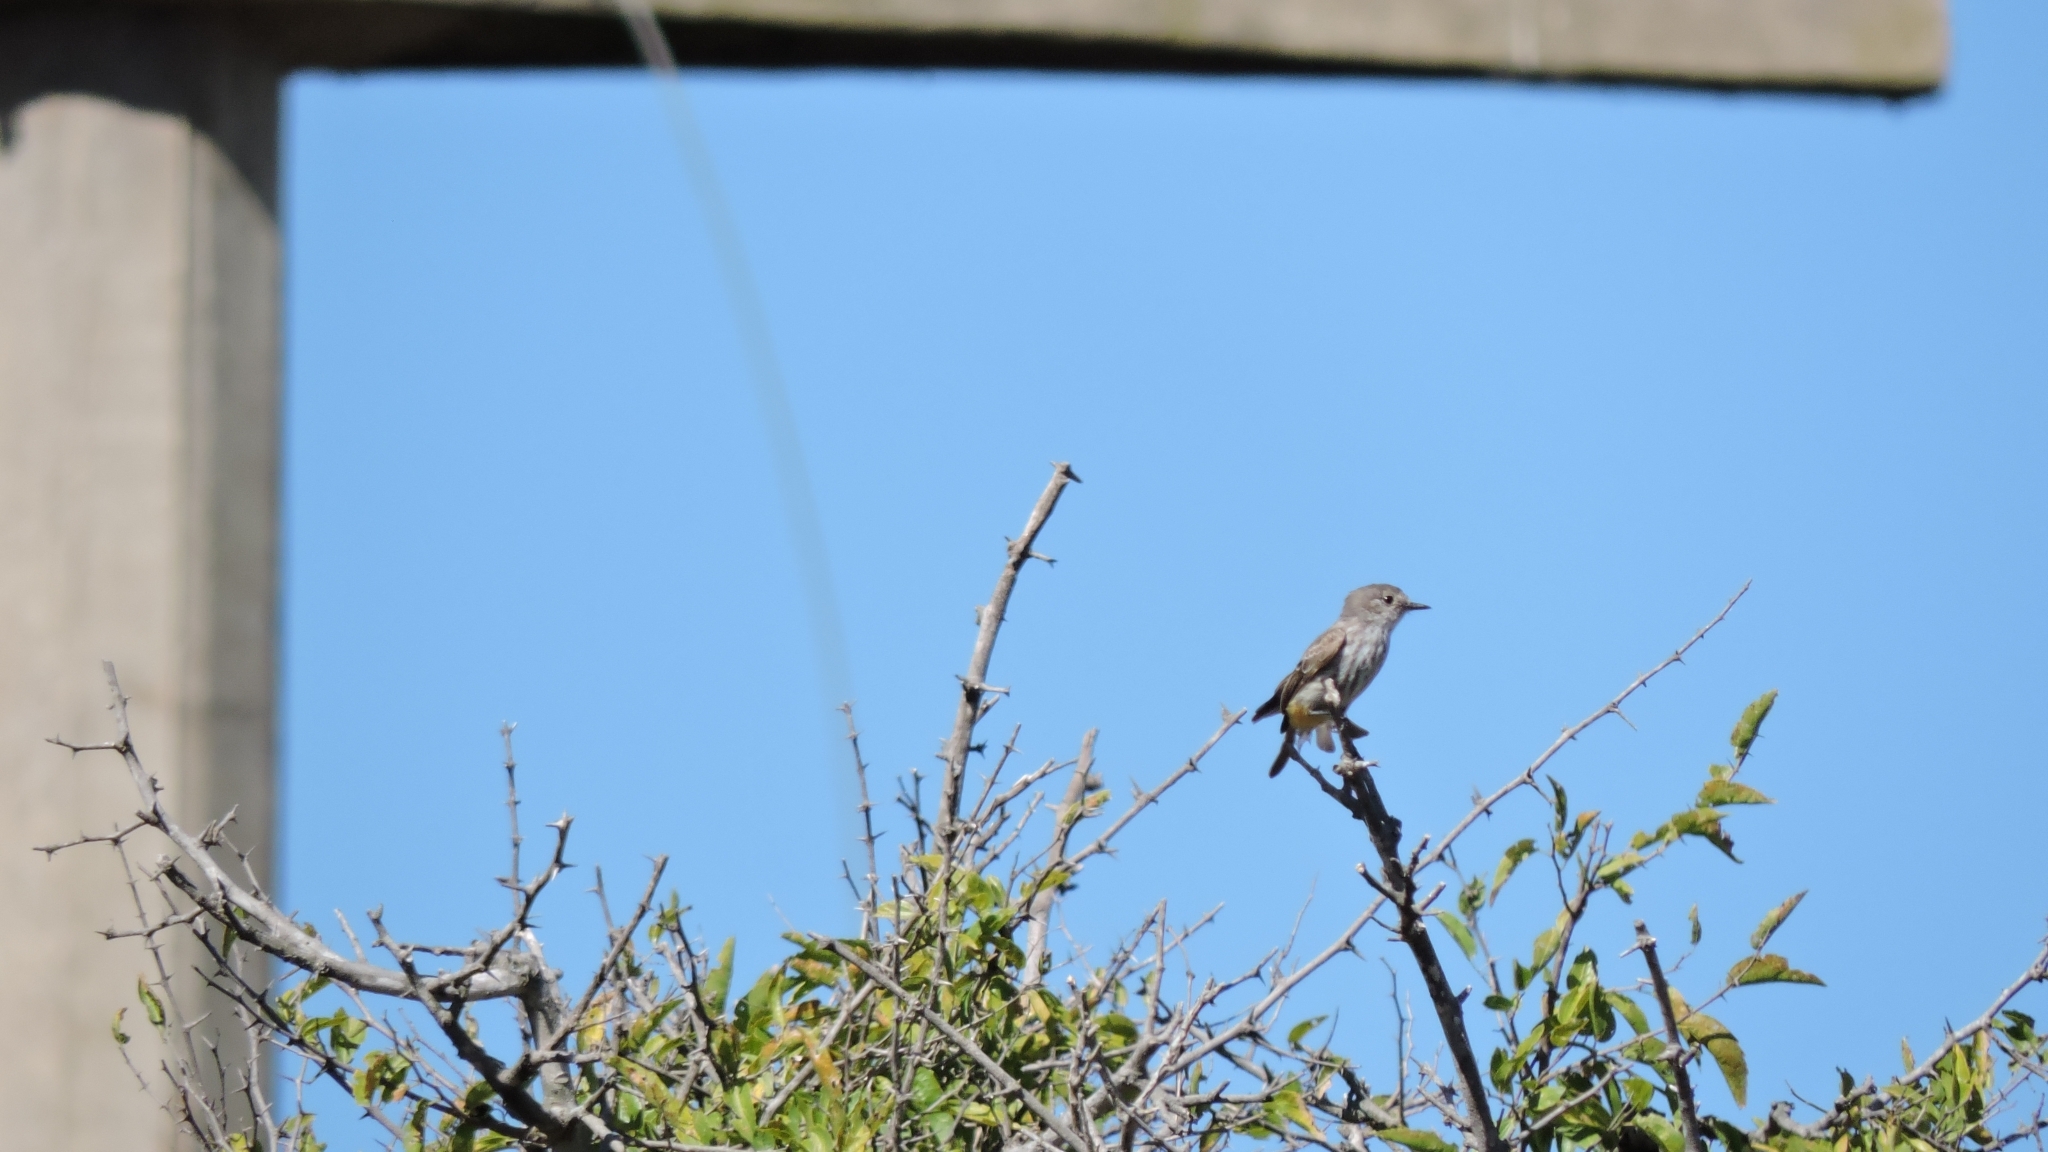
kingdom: Animalia
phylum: Chordata
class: Aves
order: Passeriformes
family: Tyrannidae
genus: Pyrocephalus
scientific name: Pyrocephalus rubinus
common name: Vermilion flycatcher
